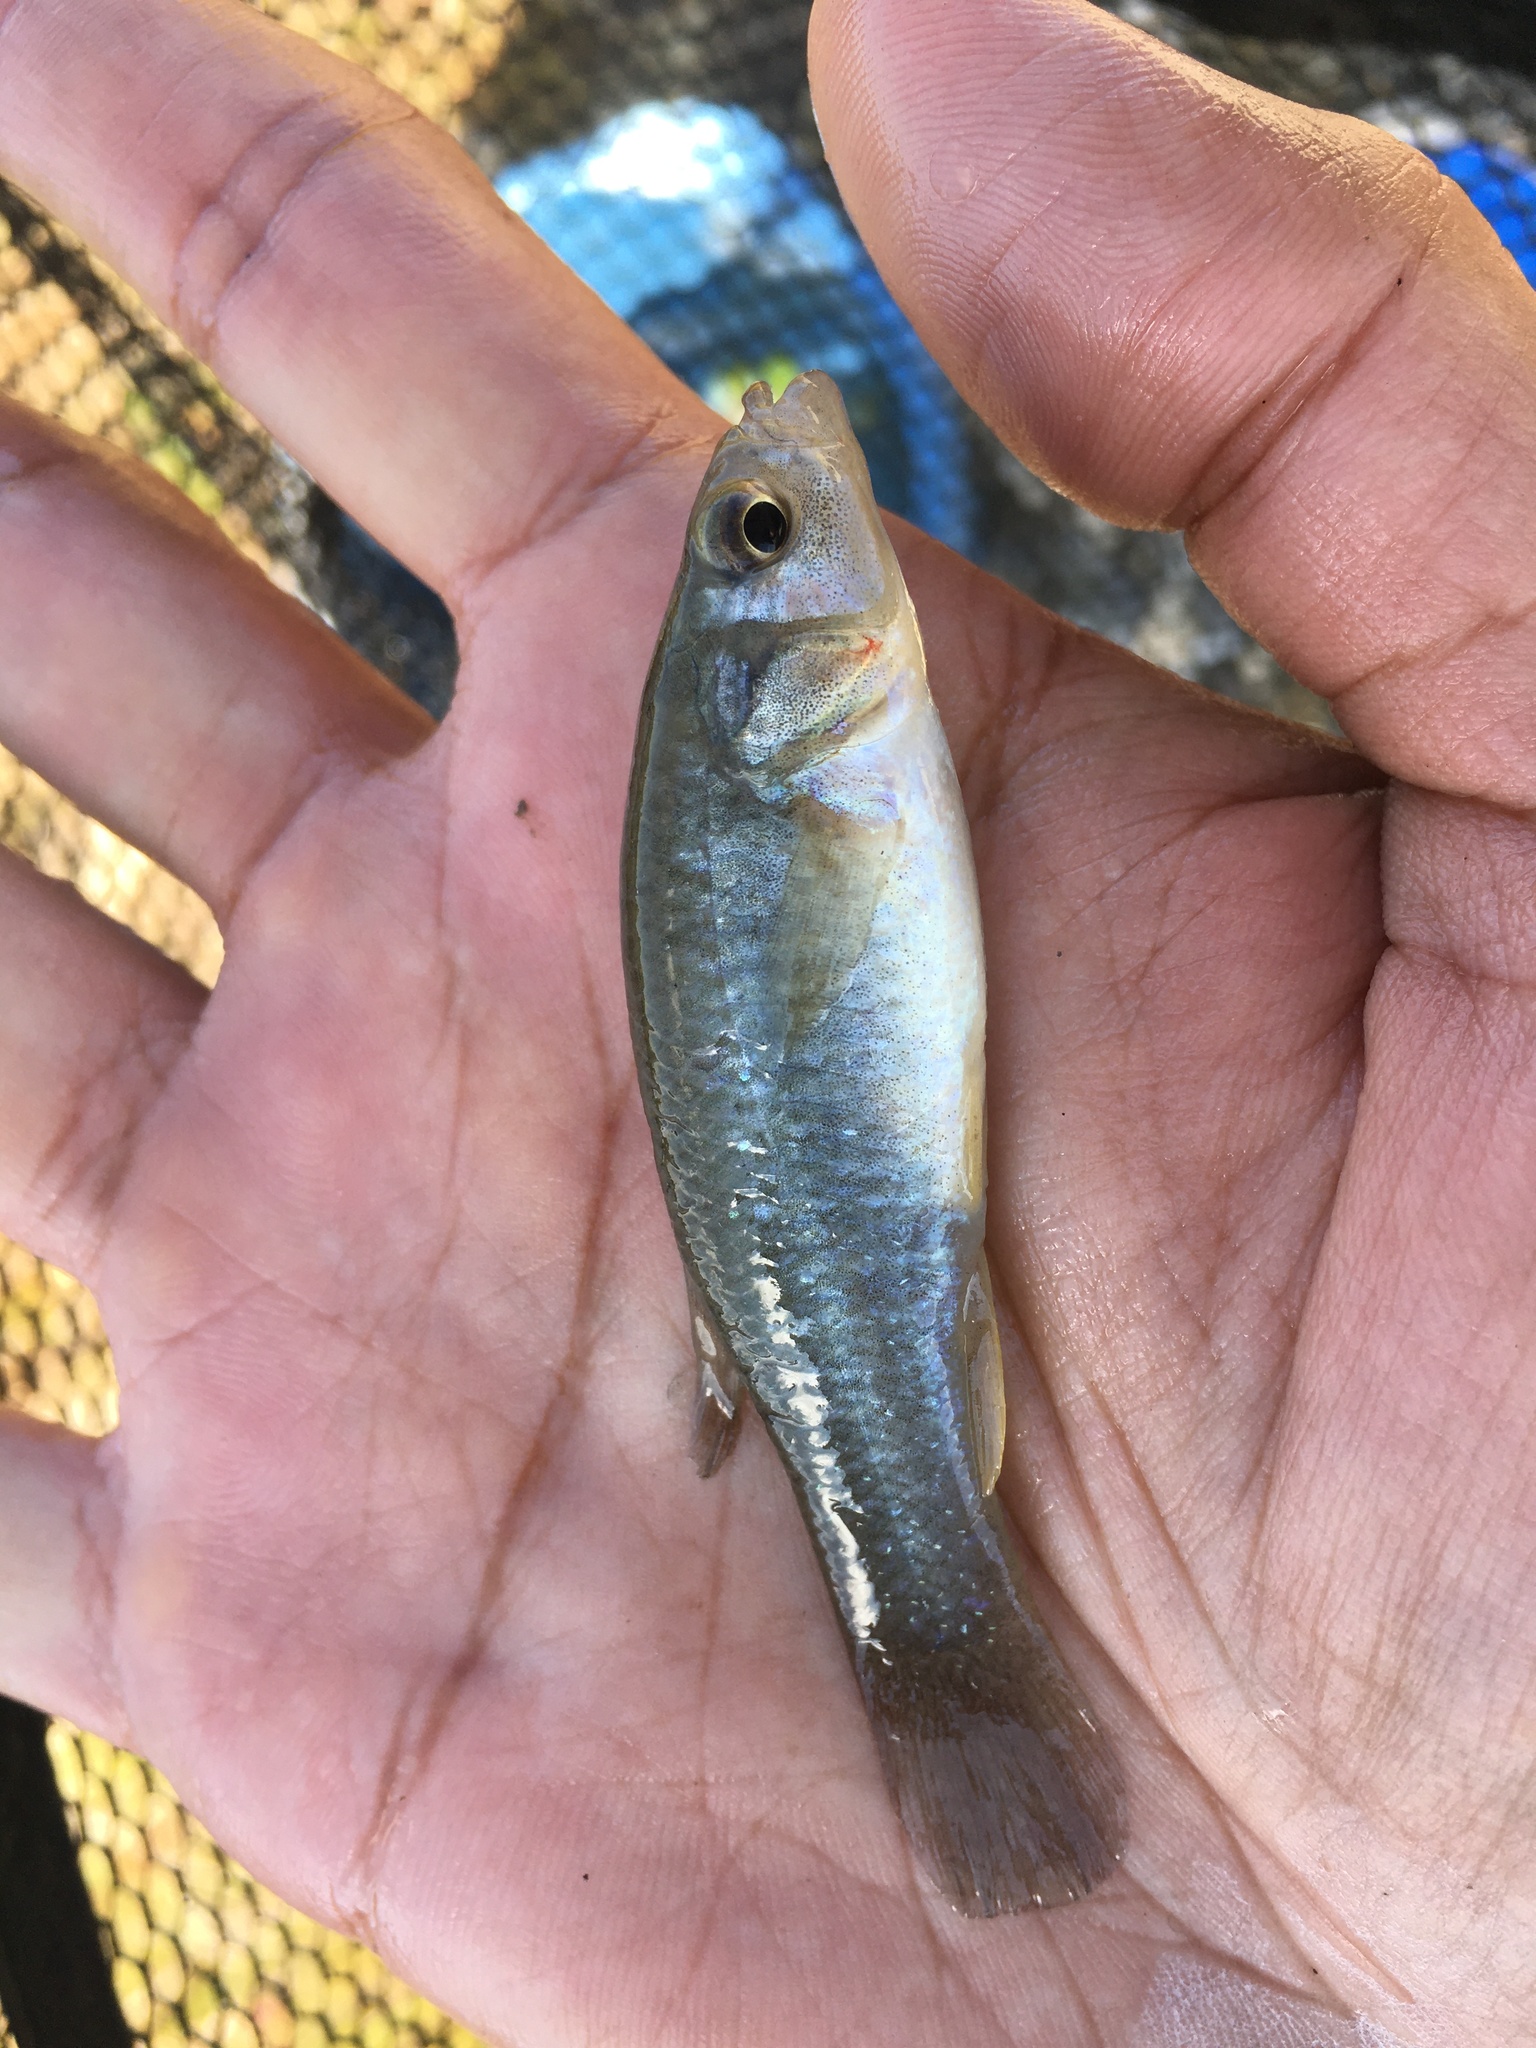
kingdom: Animalia
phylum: Chordata
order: Cyprinodontiformes
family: Fundulidae
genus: Fundulus
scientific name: Fundulus grandis
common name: Gulf killifish
